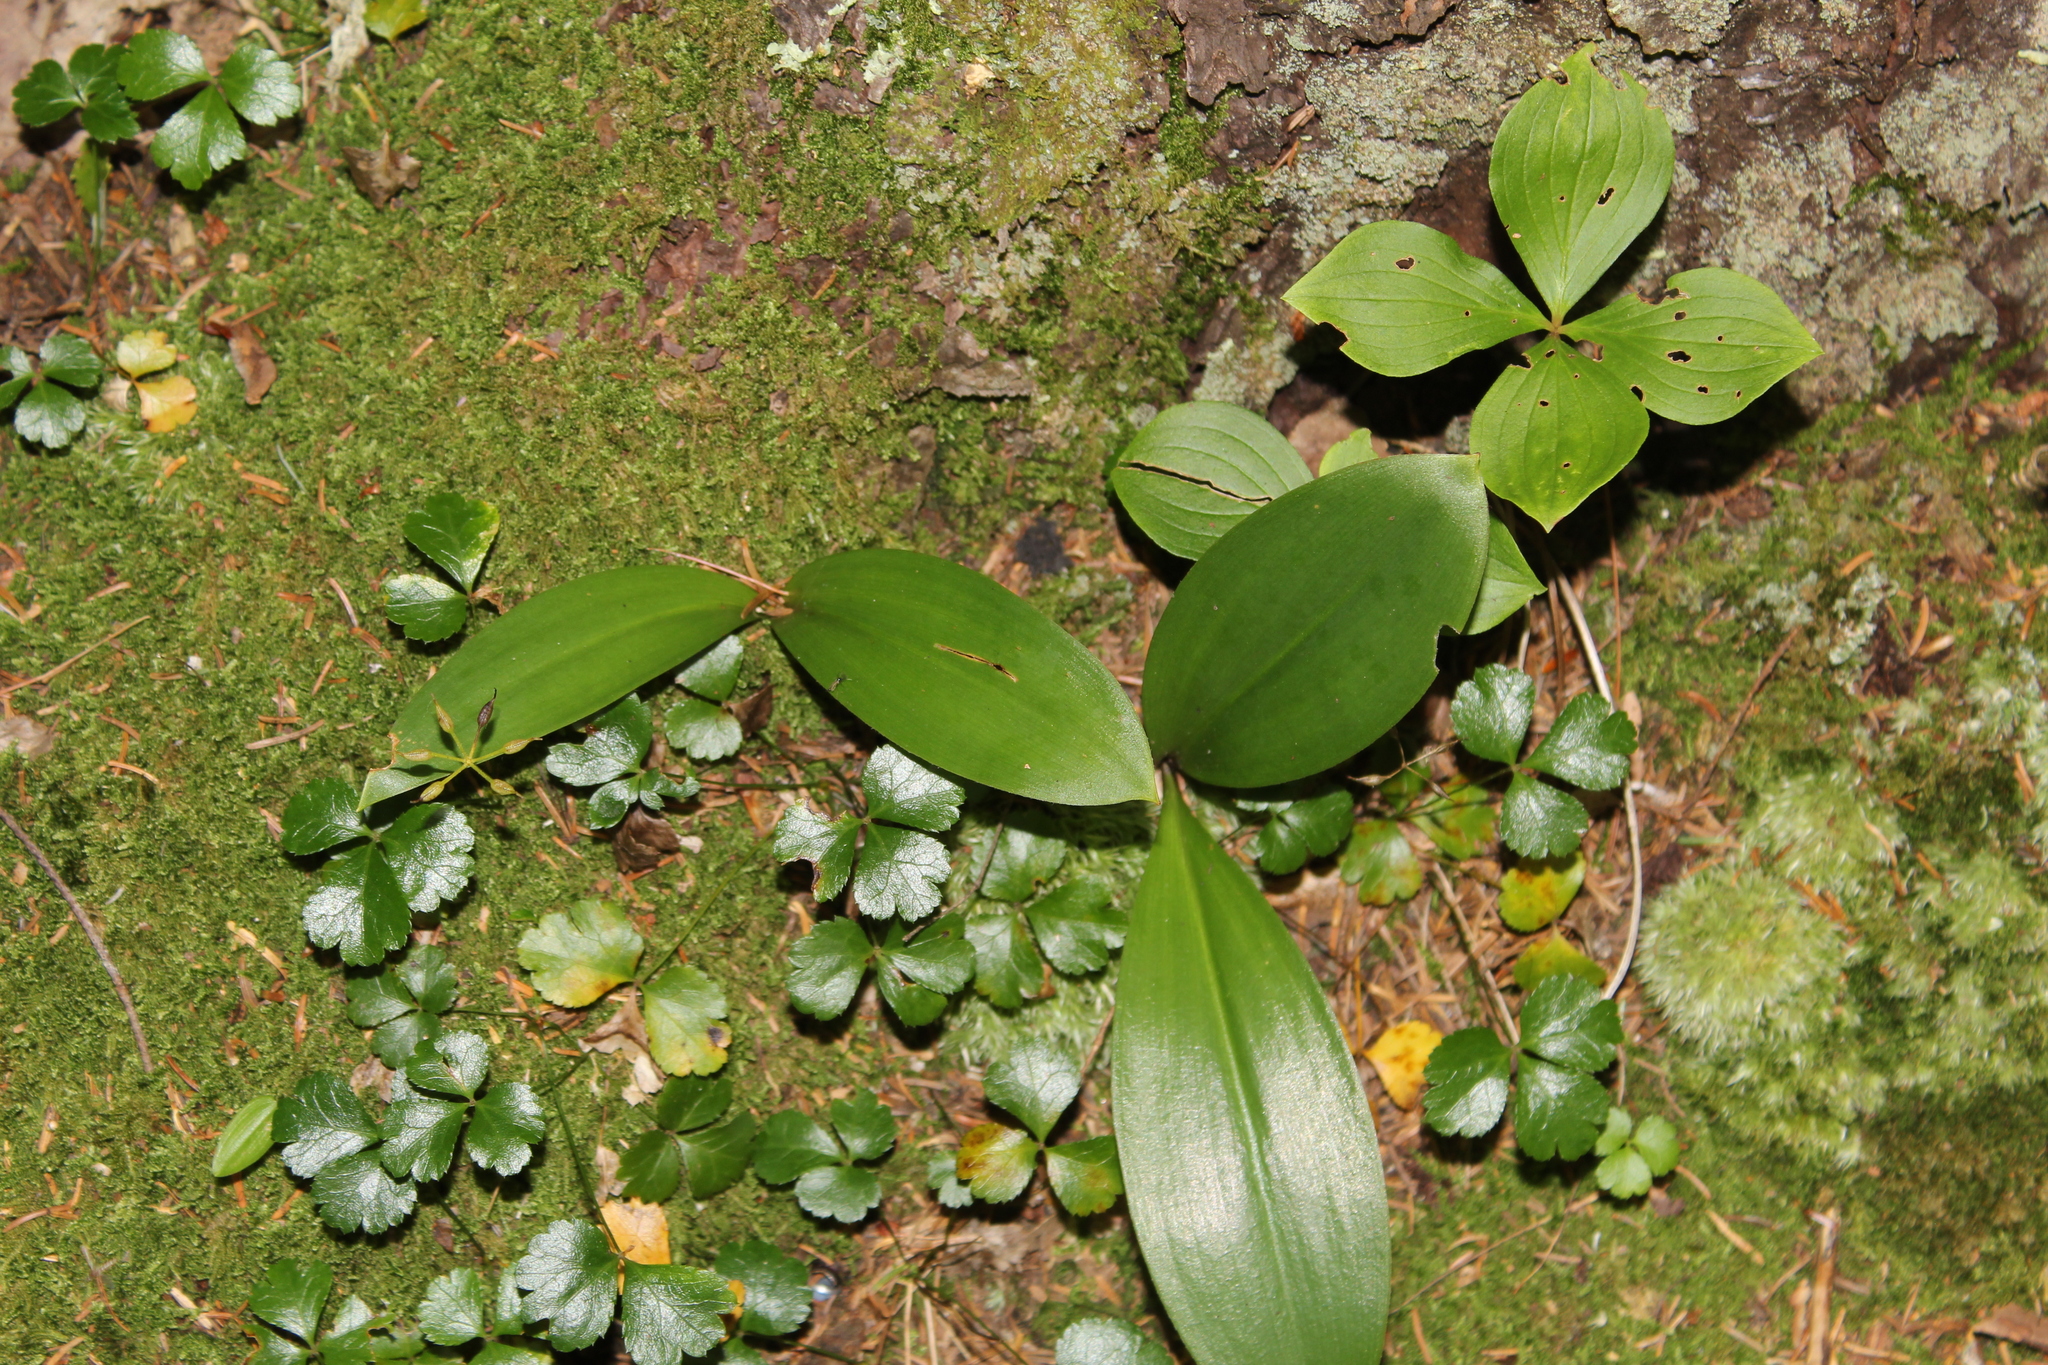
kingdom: Plantae
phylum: Tracheophyta
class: Liliopsida
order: Liliales
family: Liliaceae
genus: Clintonia
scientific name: Clintonia borealis
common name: Yellow clintonia
